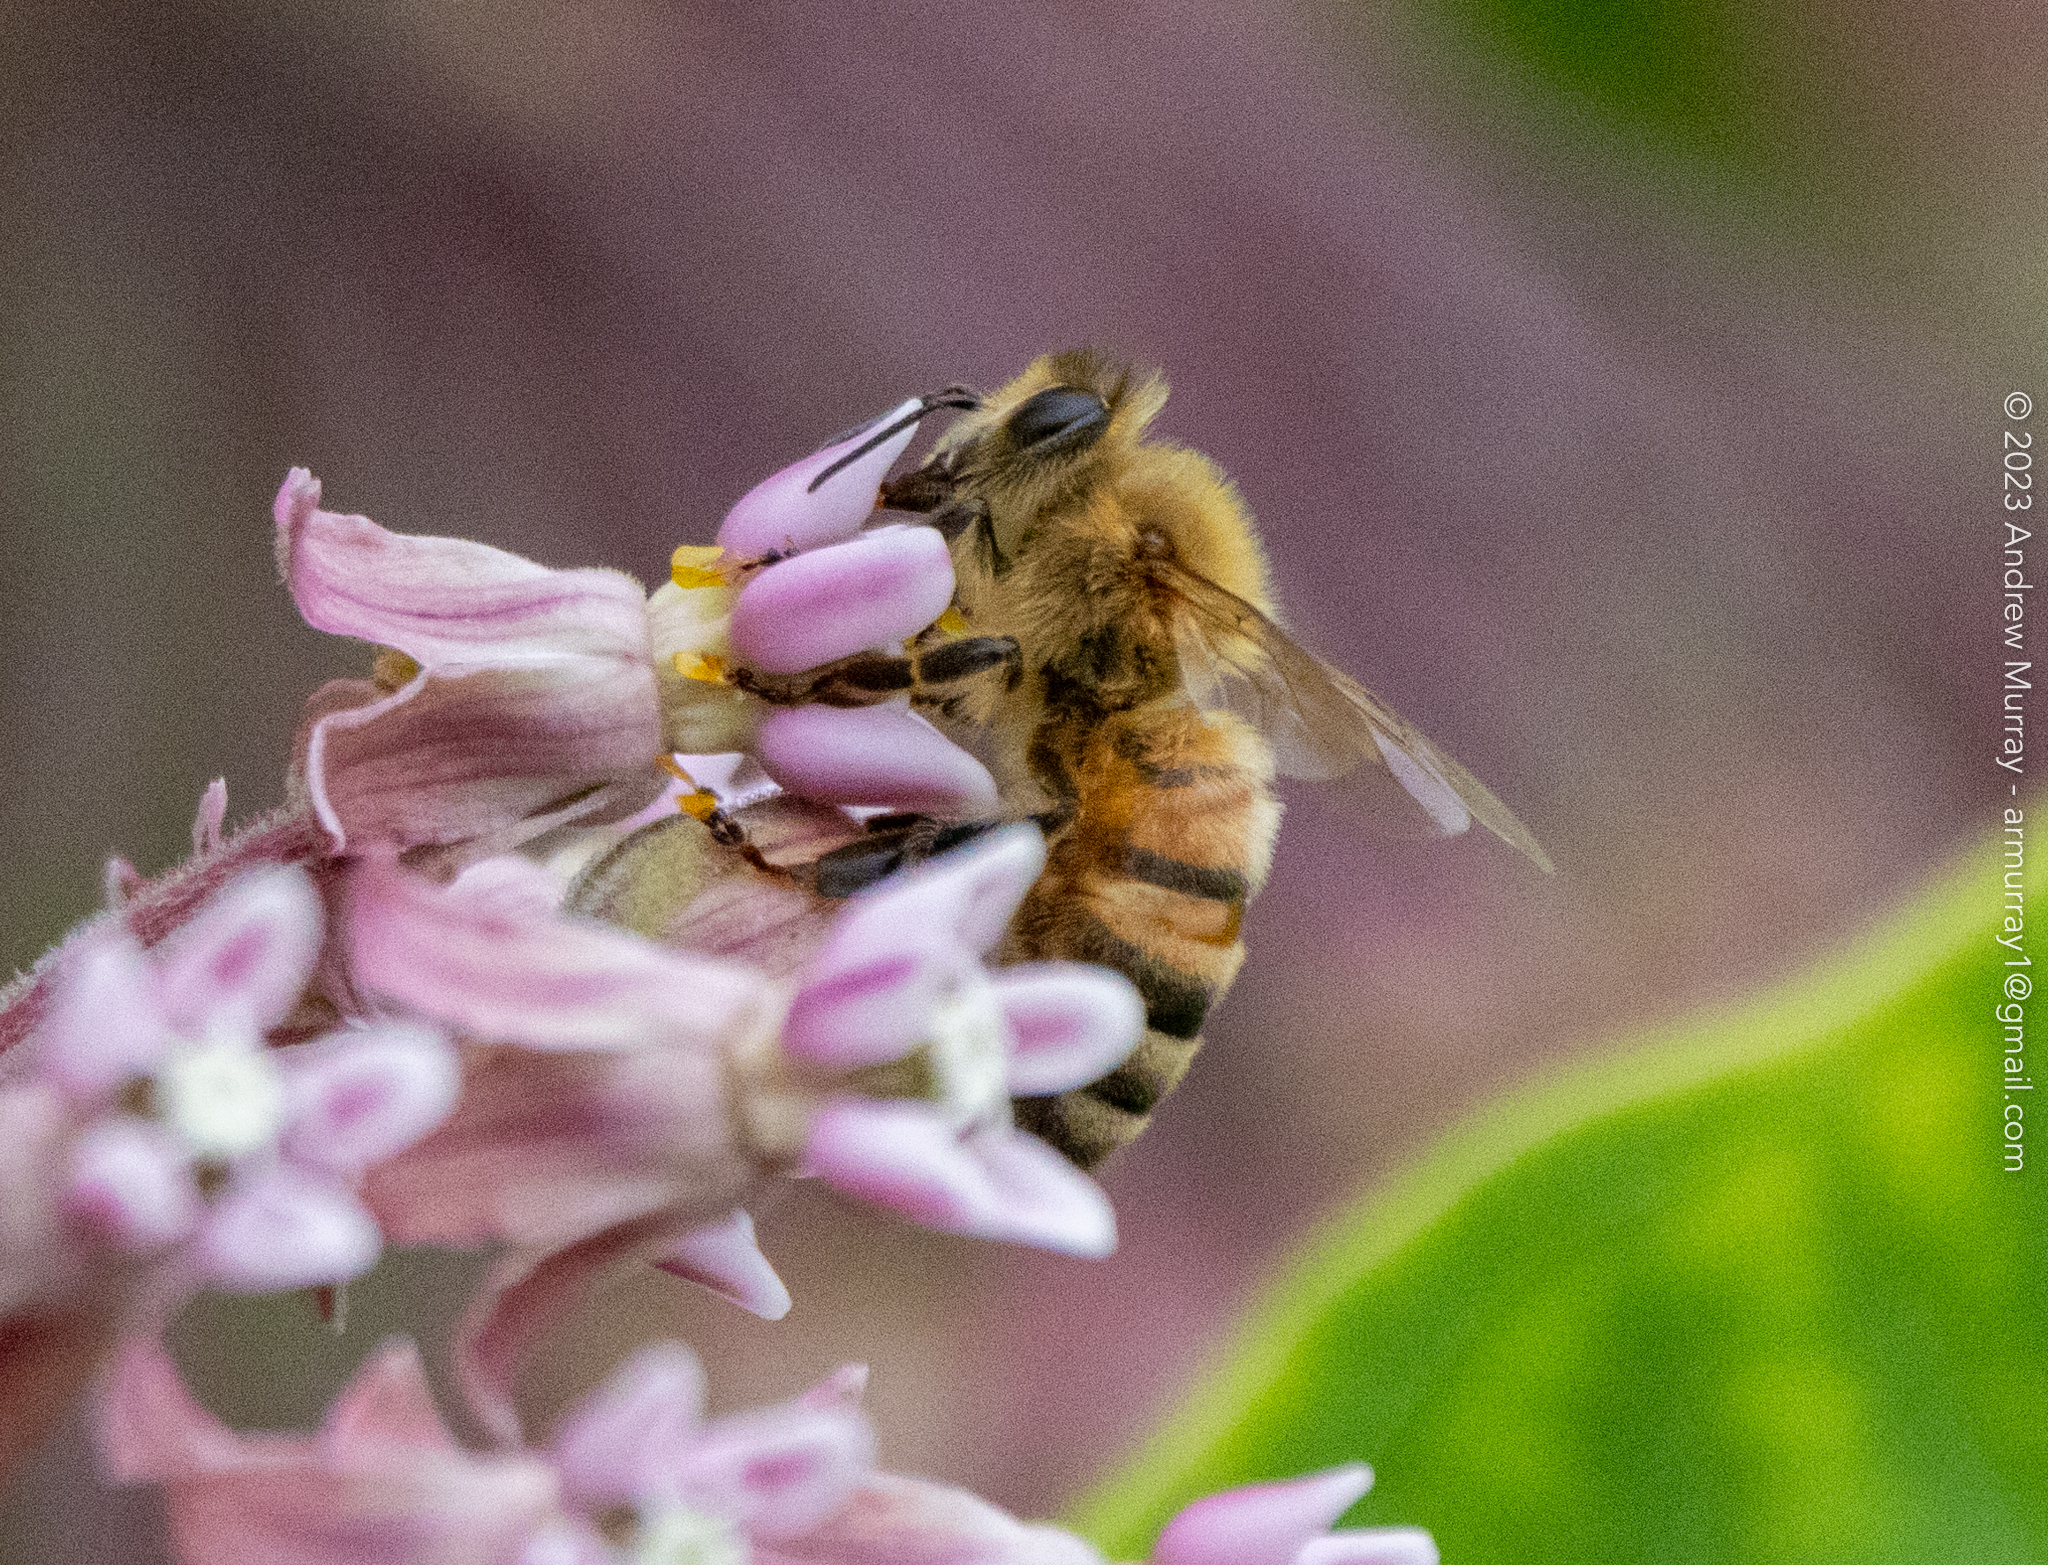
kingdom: Animalia
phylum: Arthropoda
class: Insecta
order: Hymenoptera
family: Apidae
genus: Apis
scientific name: Apis mellifera
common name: Honey bee
